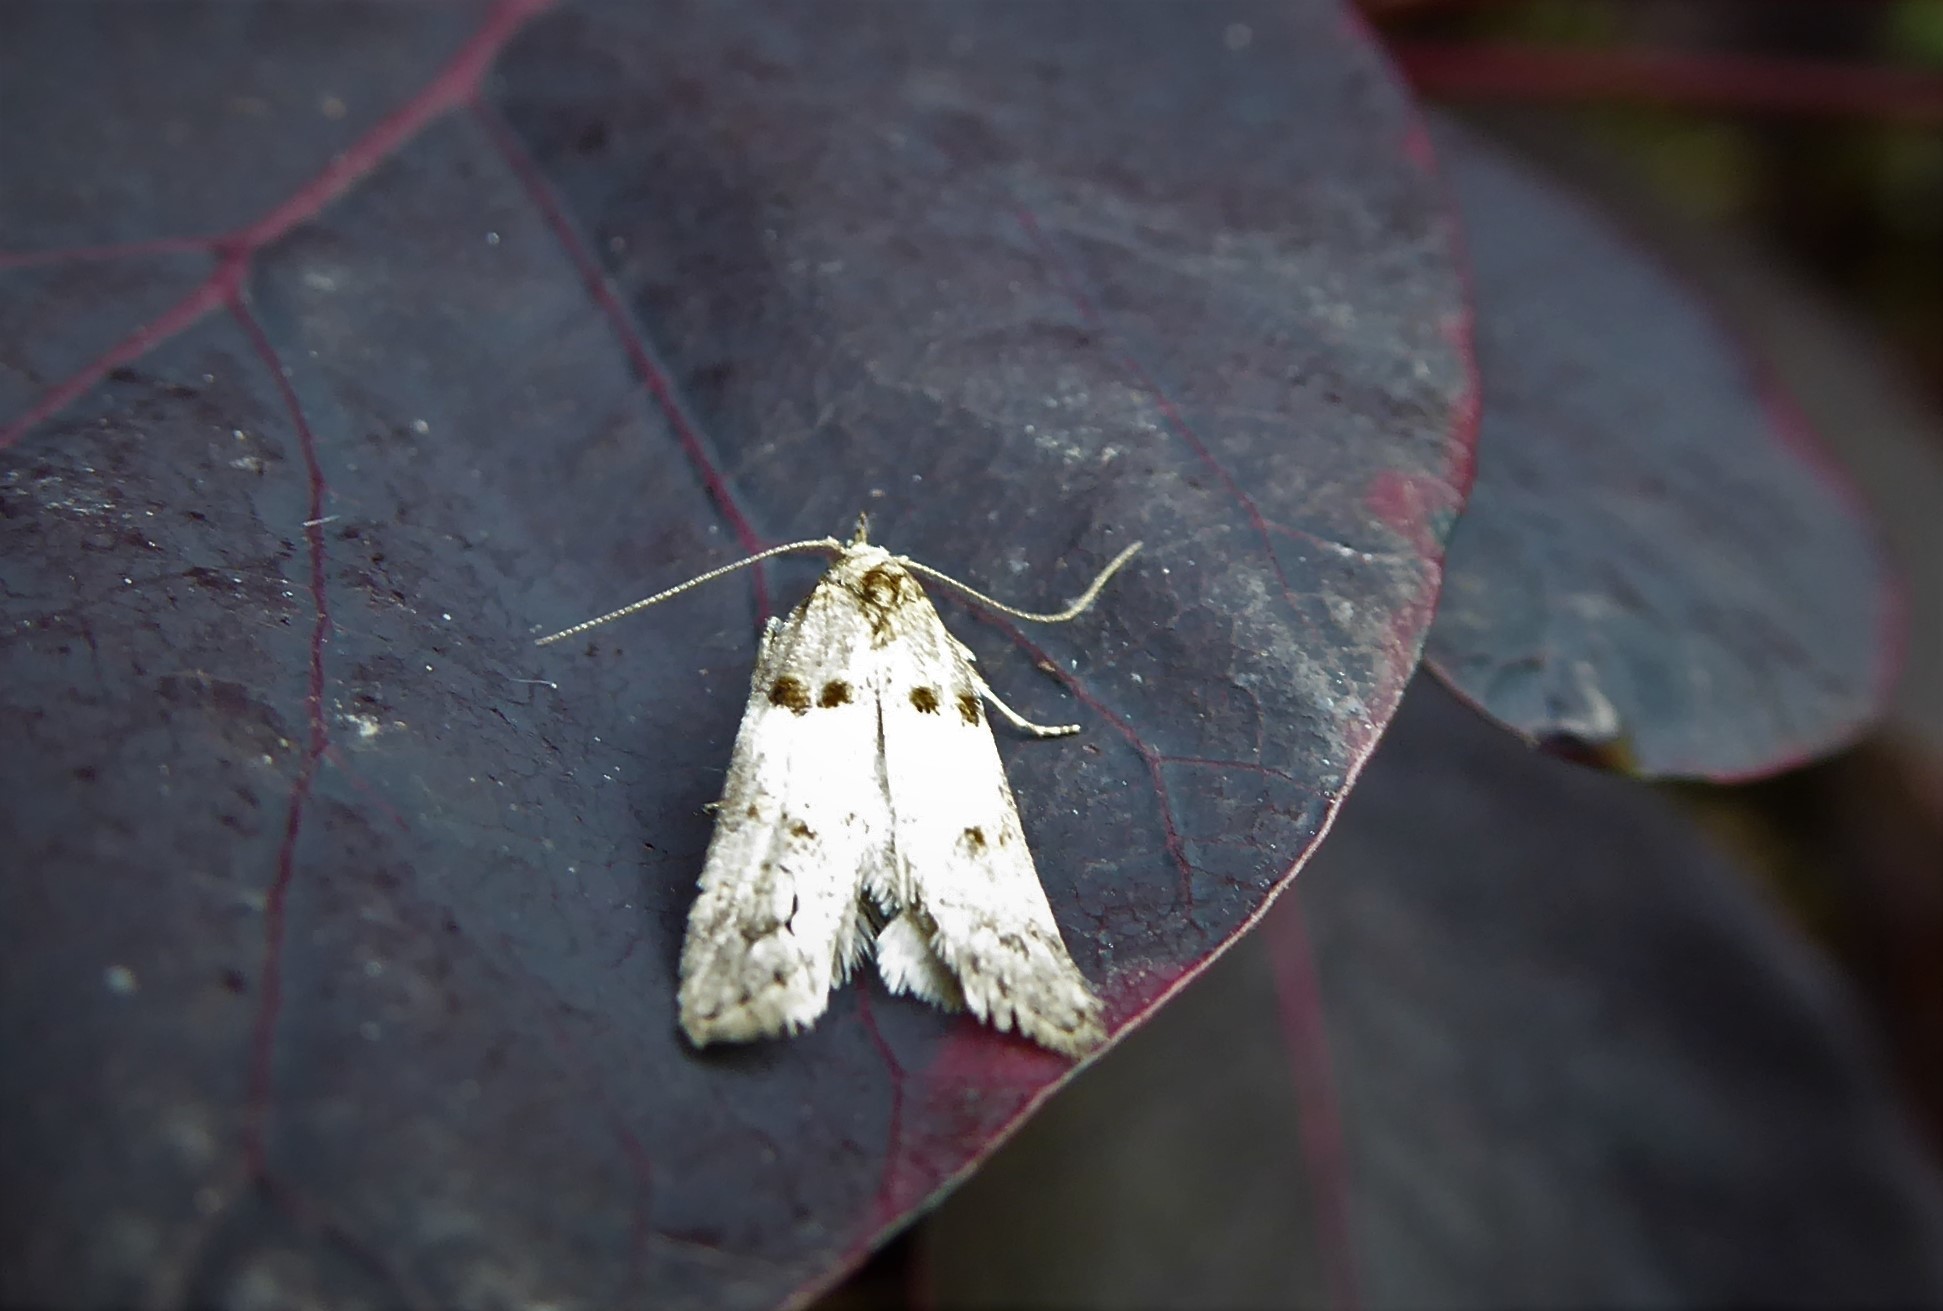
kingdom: Animalia
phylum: Arthropoda
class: Insecta
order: Lepidoptera
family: Oecophoridae
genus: Trachypepla
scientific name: Trachypepla contritella
